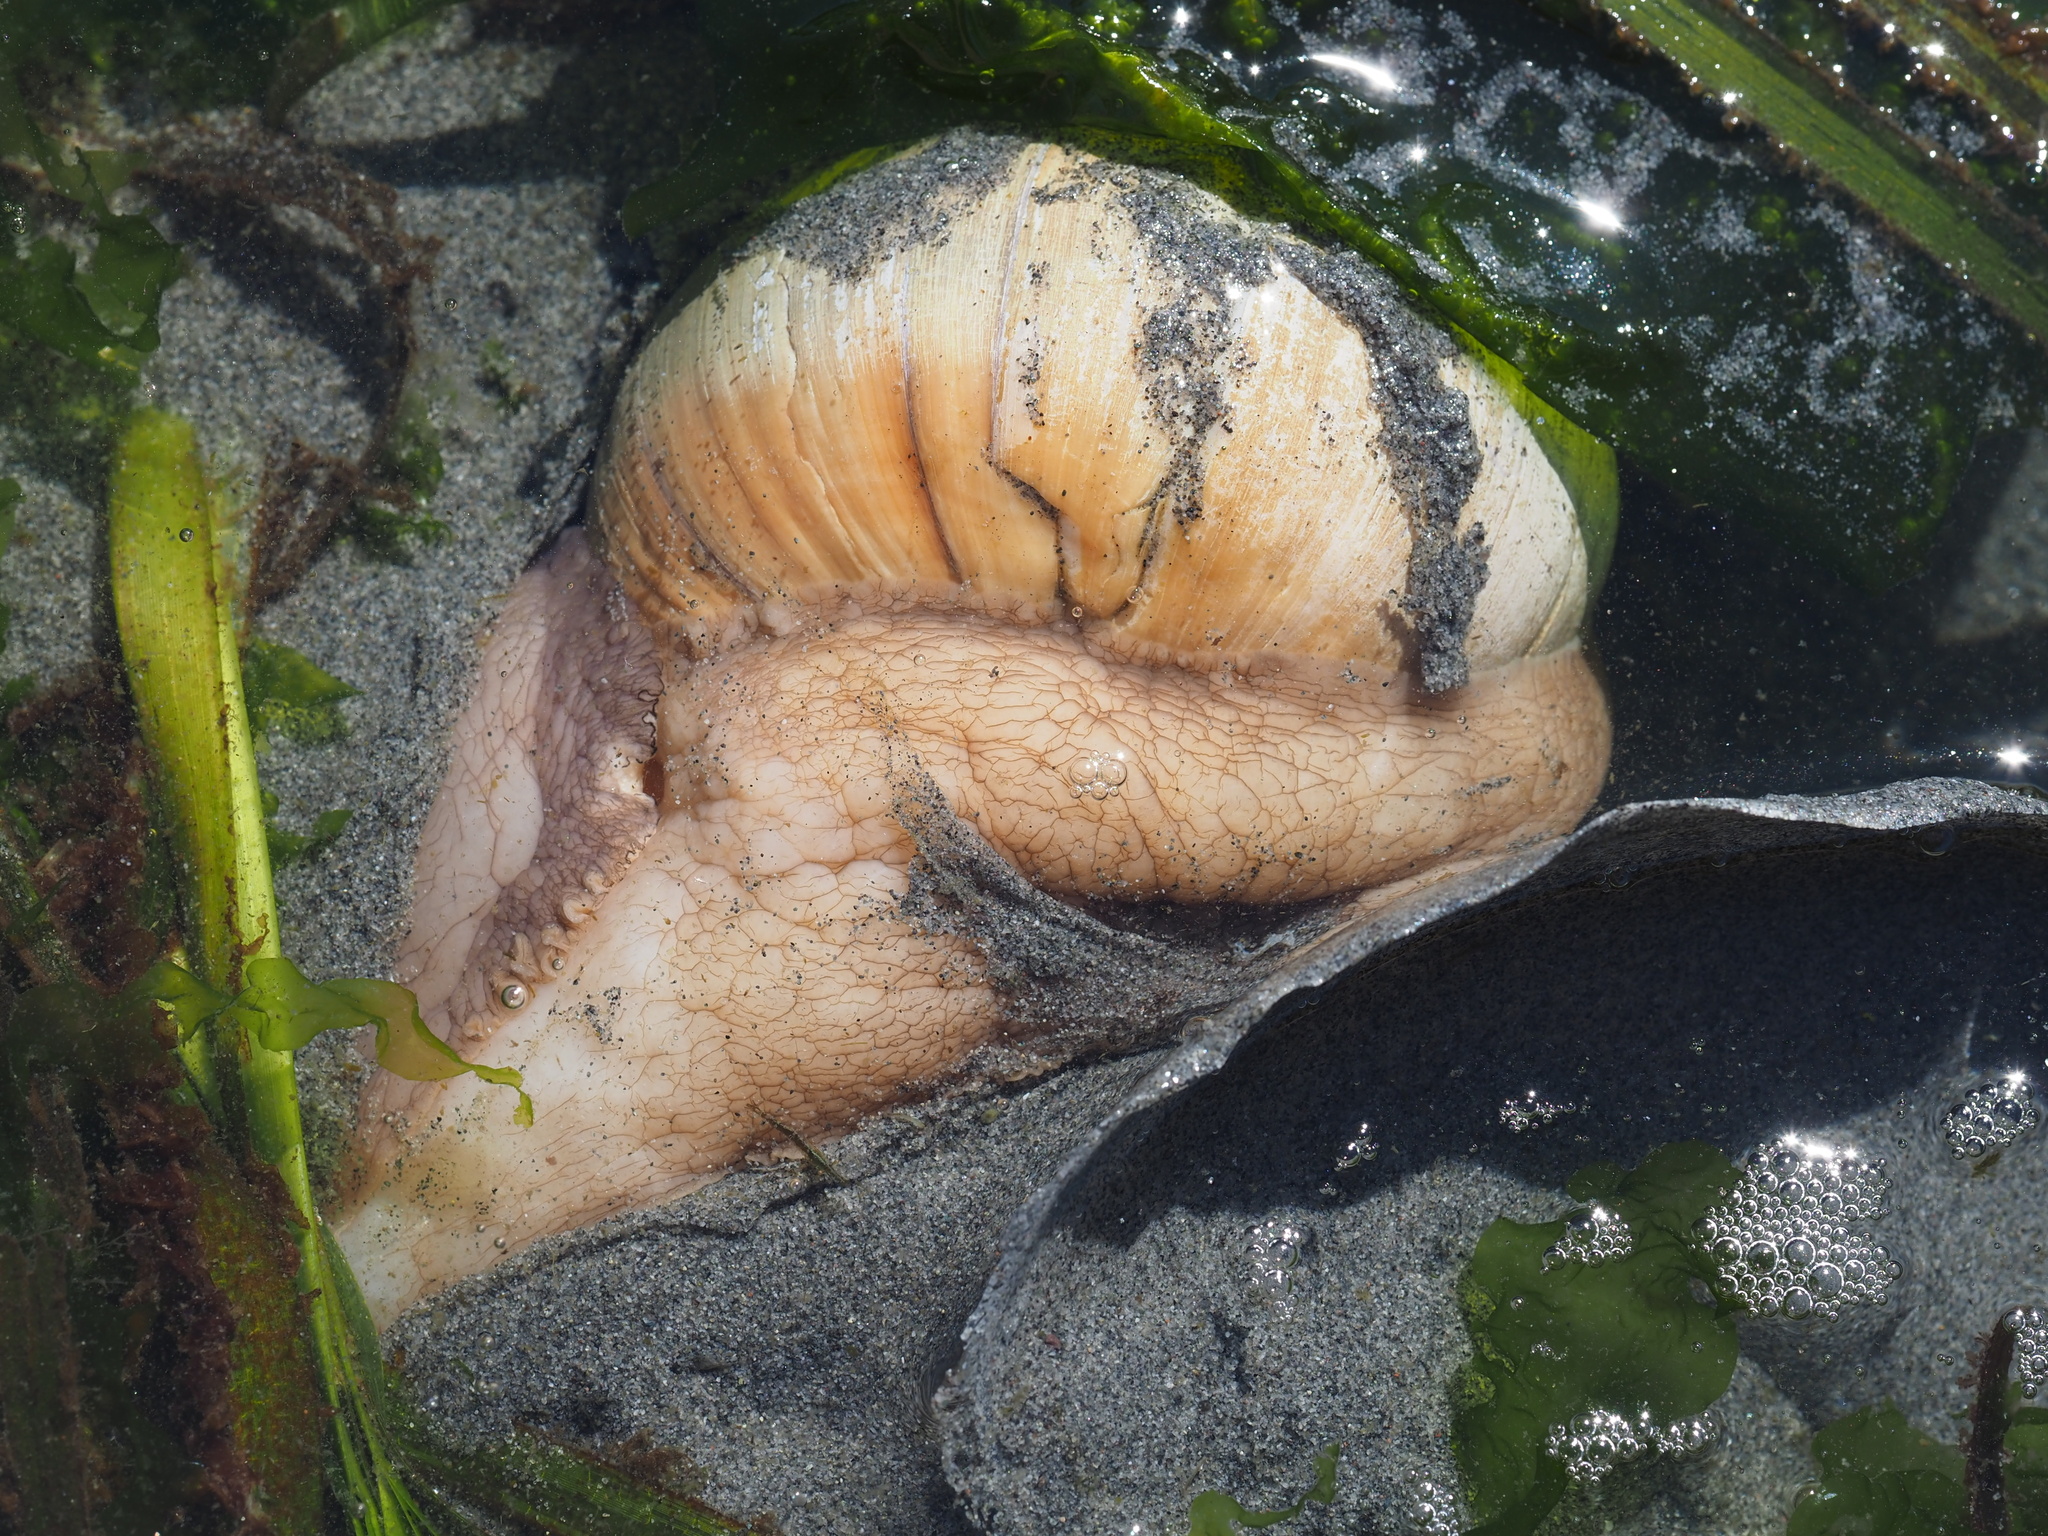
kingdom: Animalia
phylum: Mollusca
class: Gastropoda
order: Littorinimorpha
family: Naticidae
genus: Neverita
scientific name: Neverita lewisii
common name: Lewis' moonsnail
